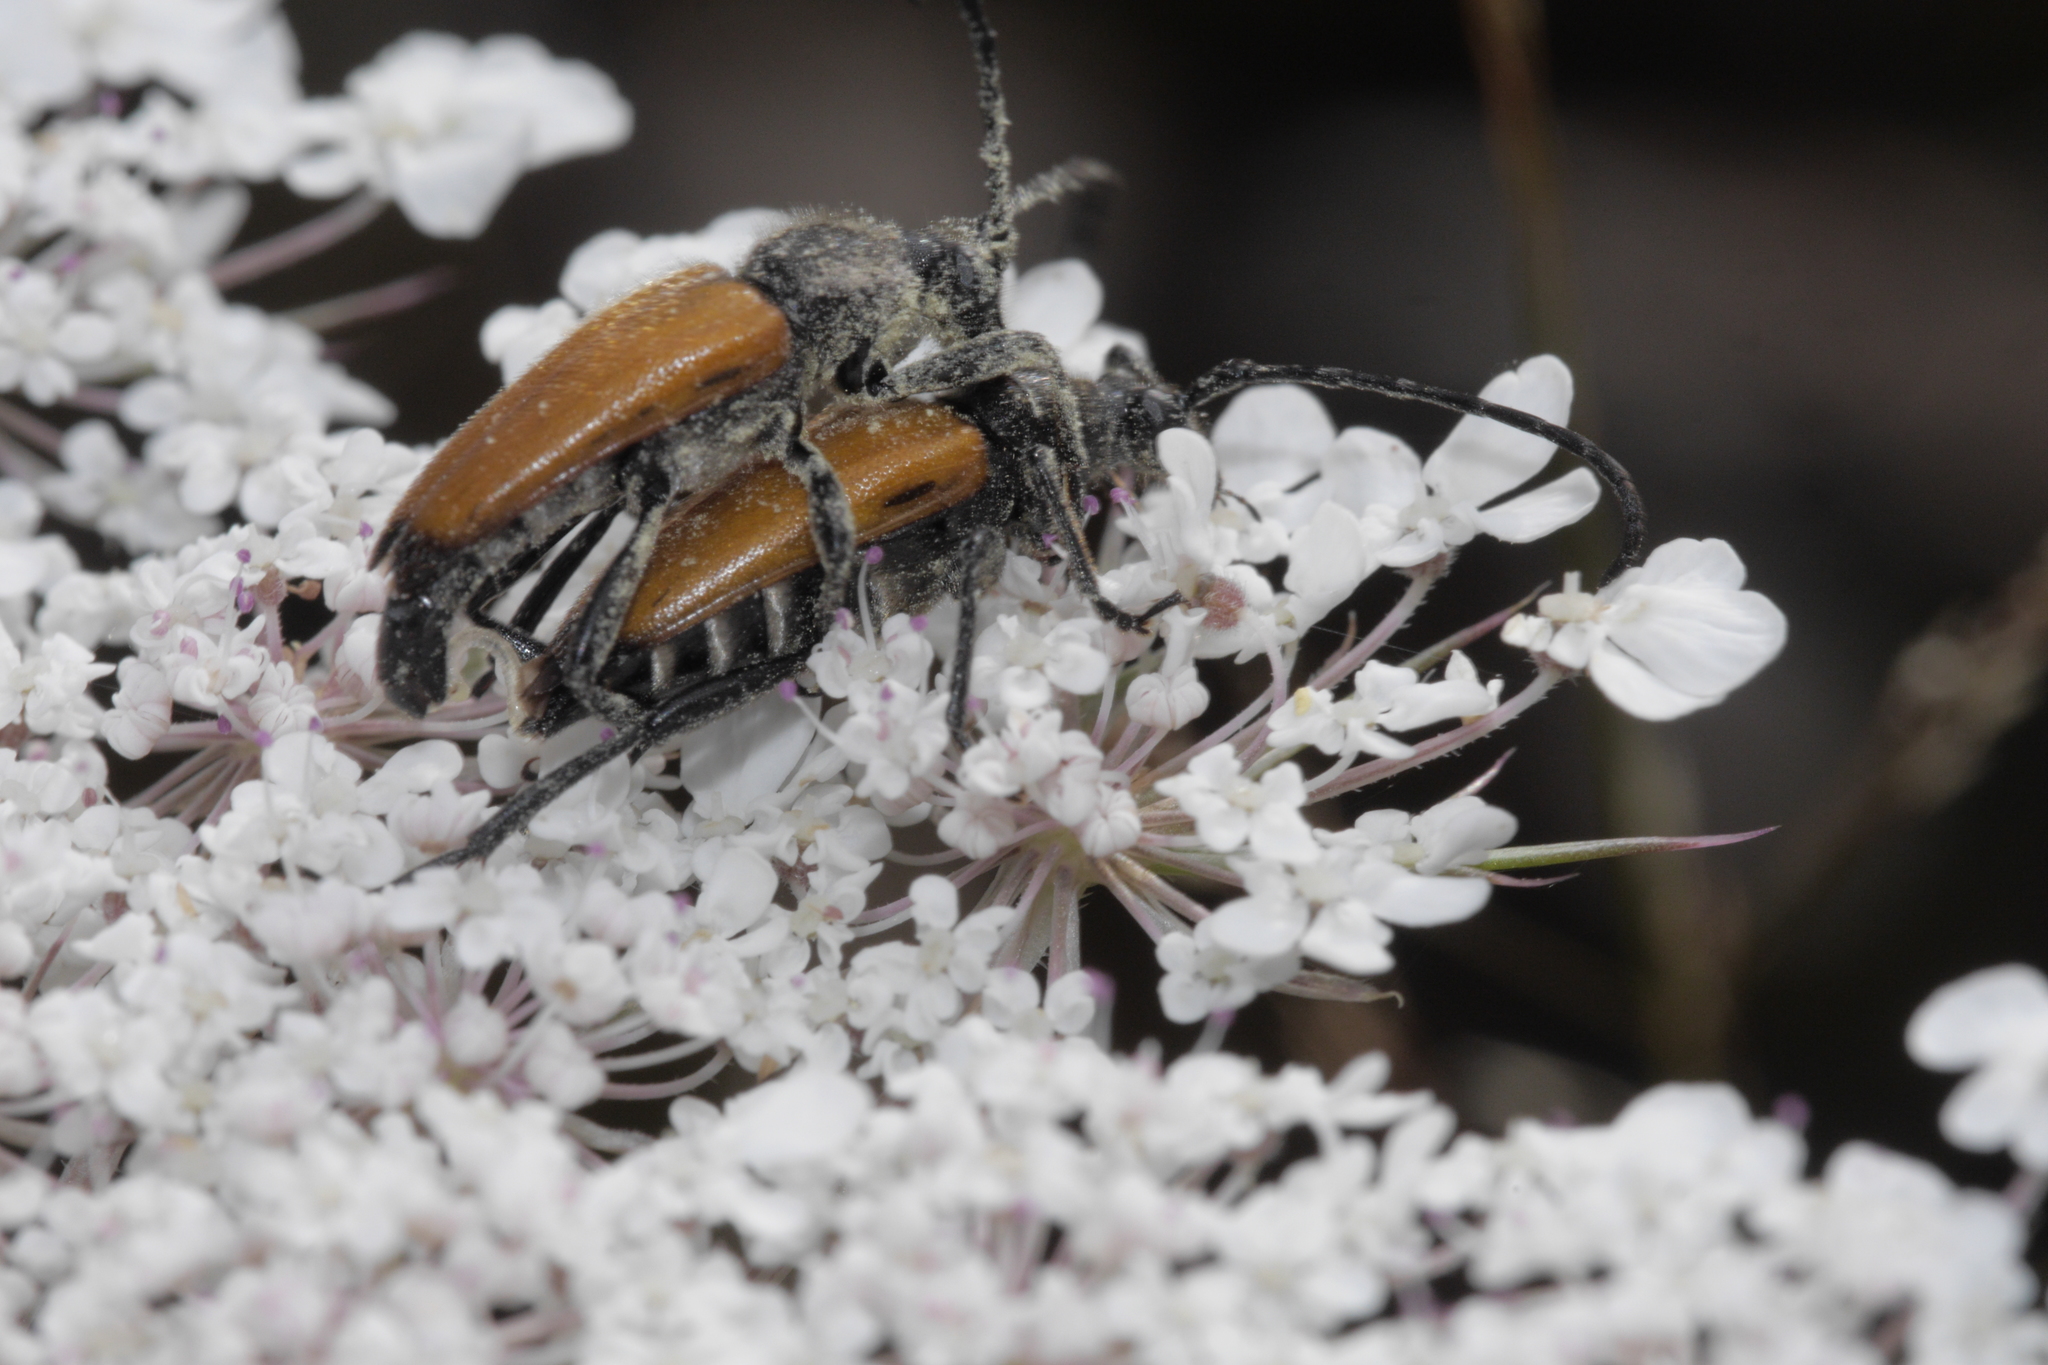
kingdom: Animalia
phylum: Arthropoda
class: Insecta
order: Coleoptera
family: Cerambycidae
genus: Paracorymbia
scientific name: Paracorymbia fulva
